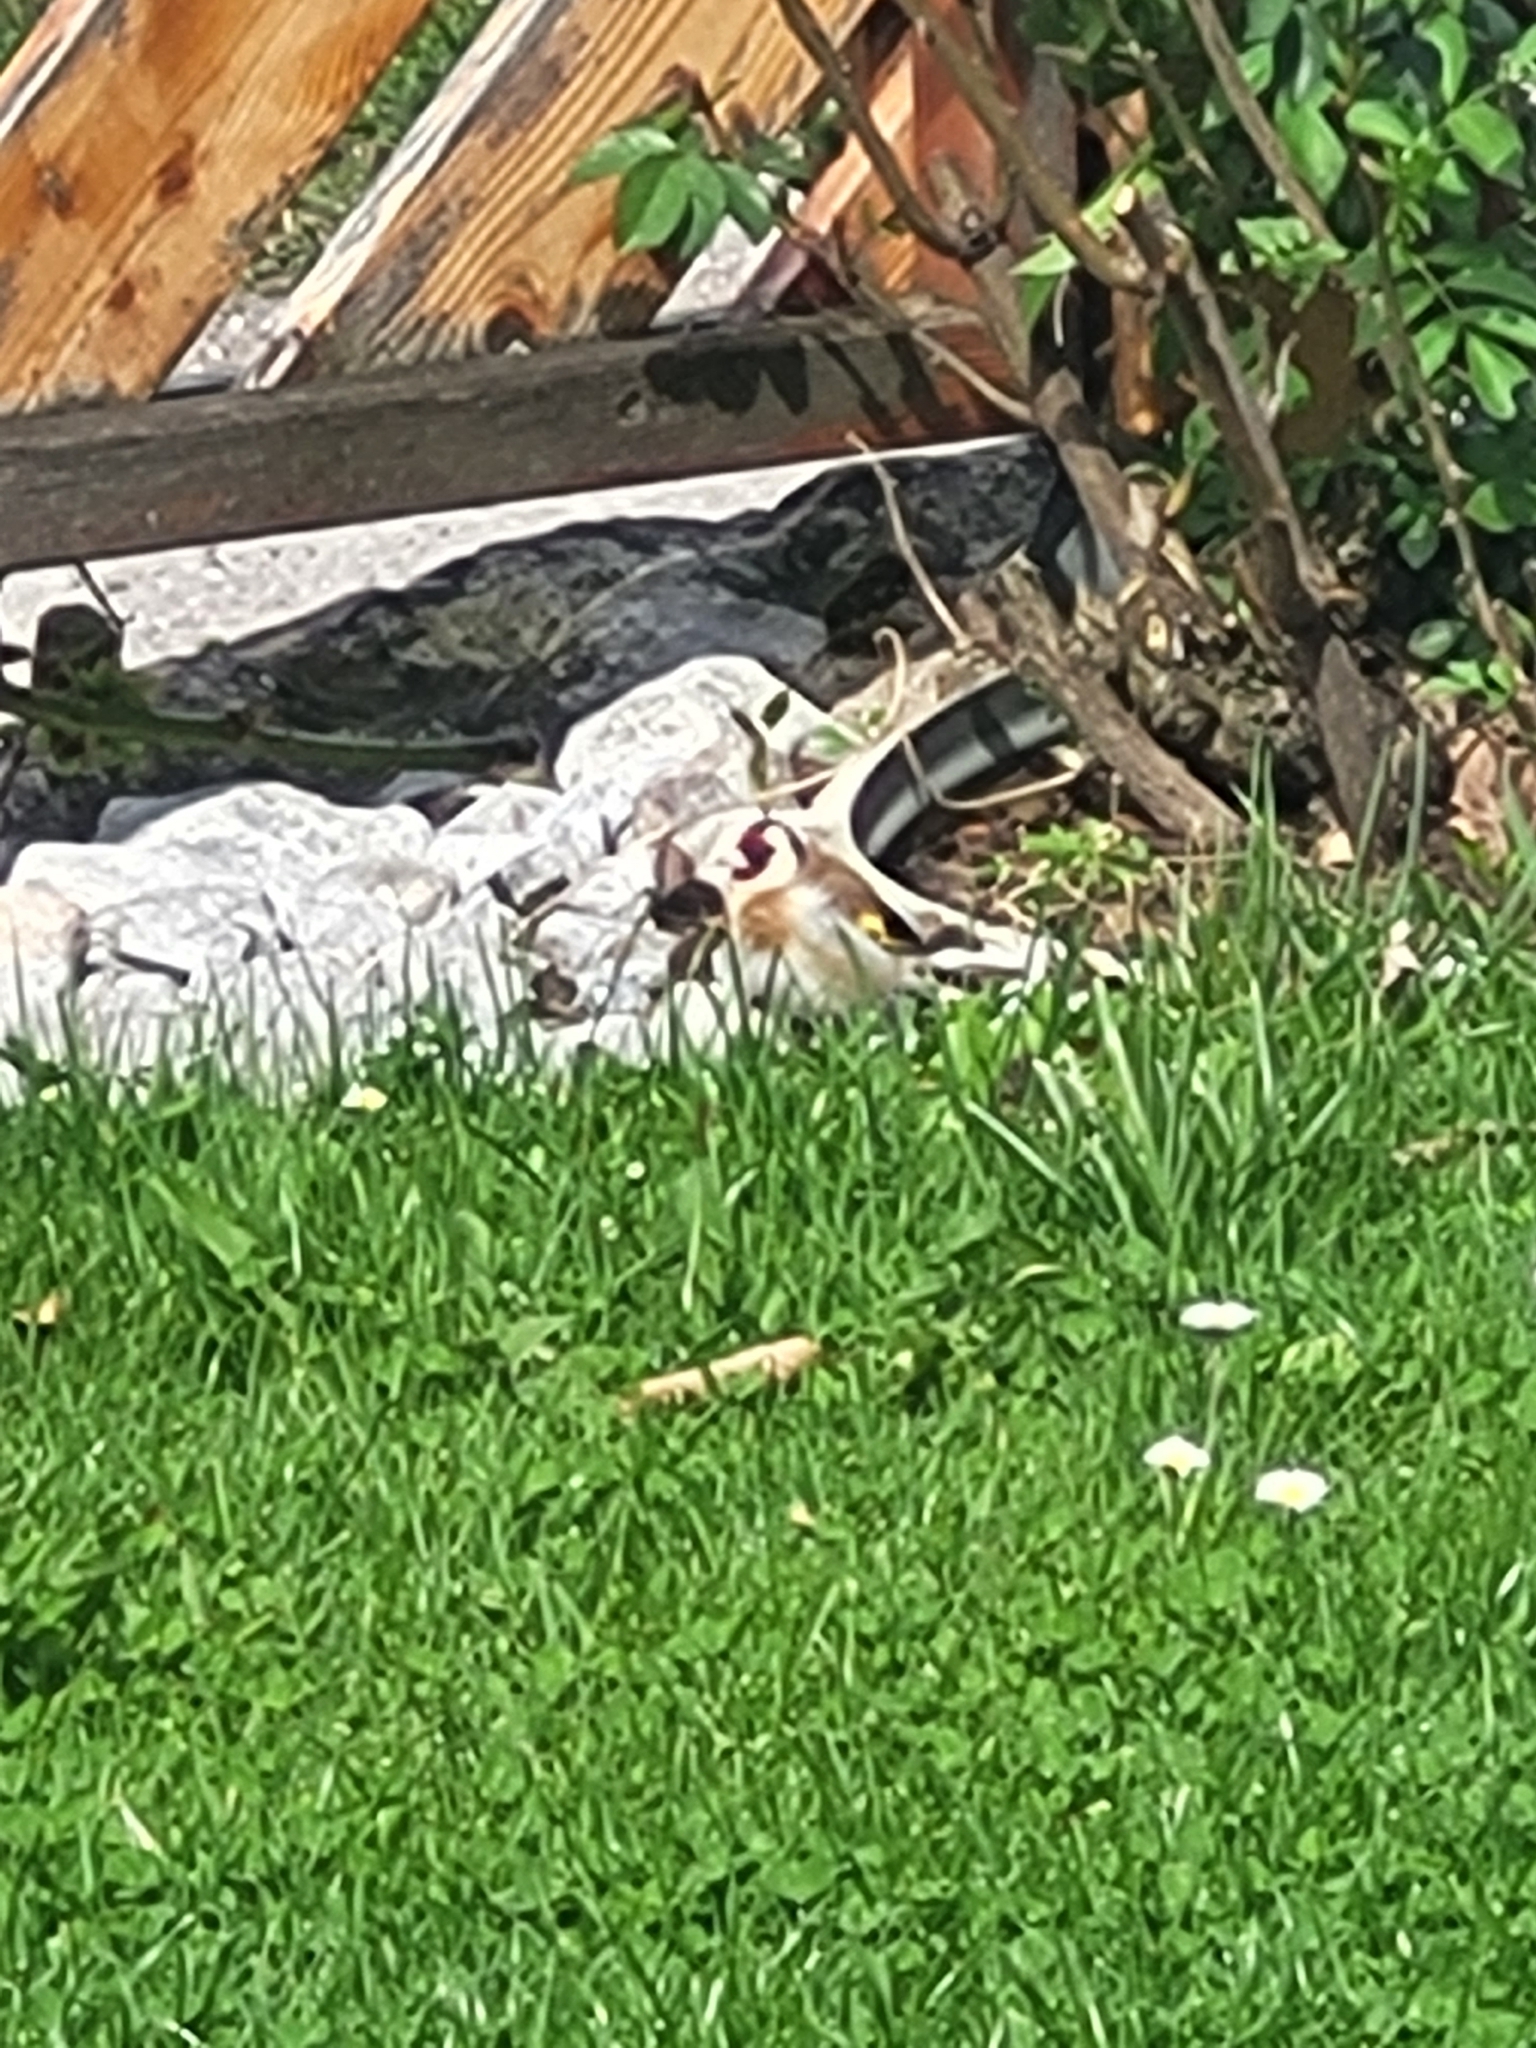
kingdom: Animalia
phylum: Chordata
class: Aves
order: Passeriformes
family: Fringillidae
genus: Carduelis
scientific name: Carduelis carduelis
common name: European goldfinch
